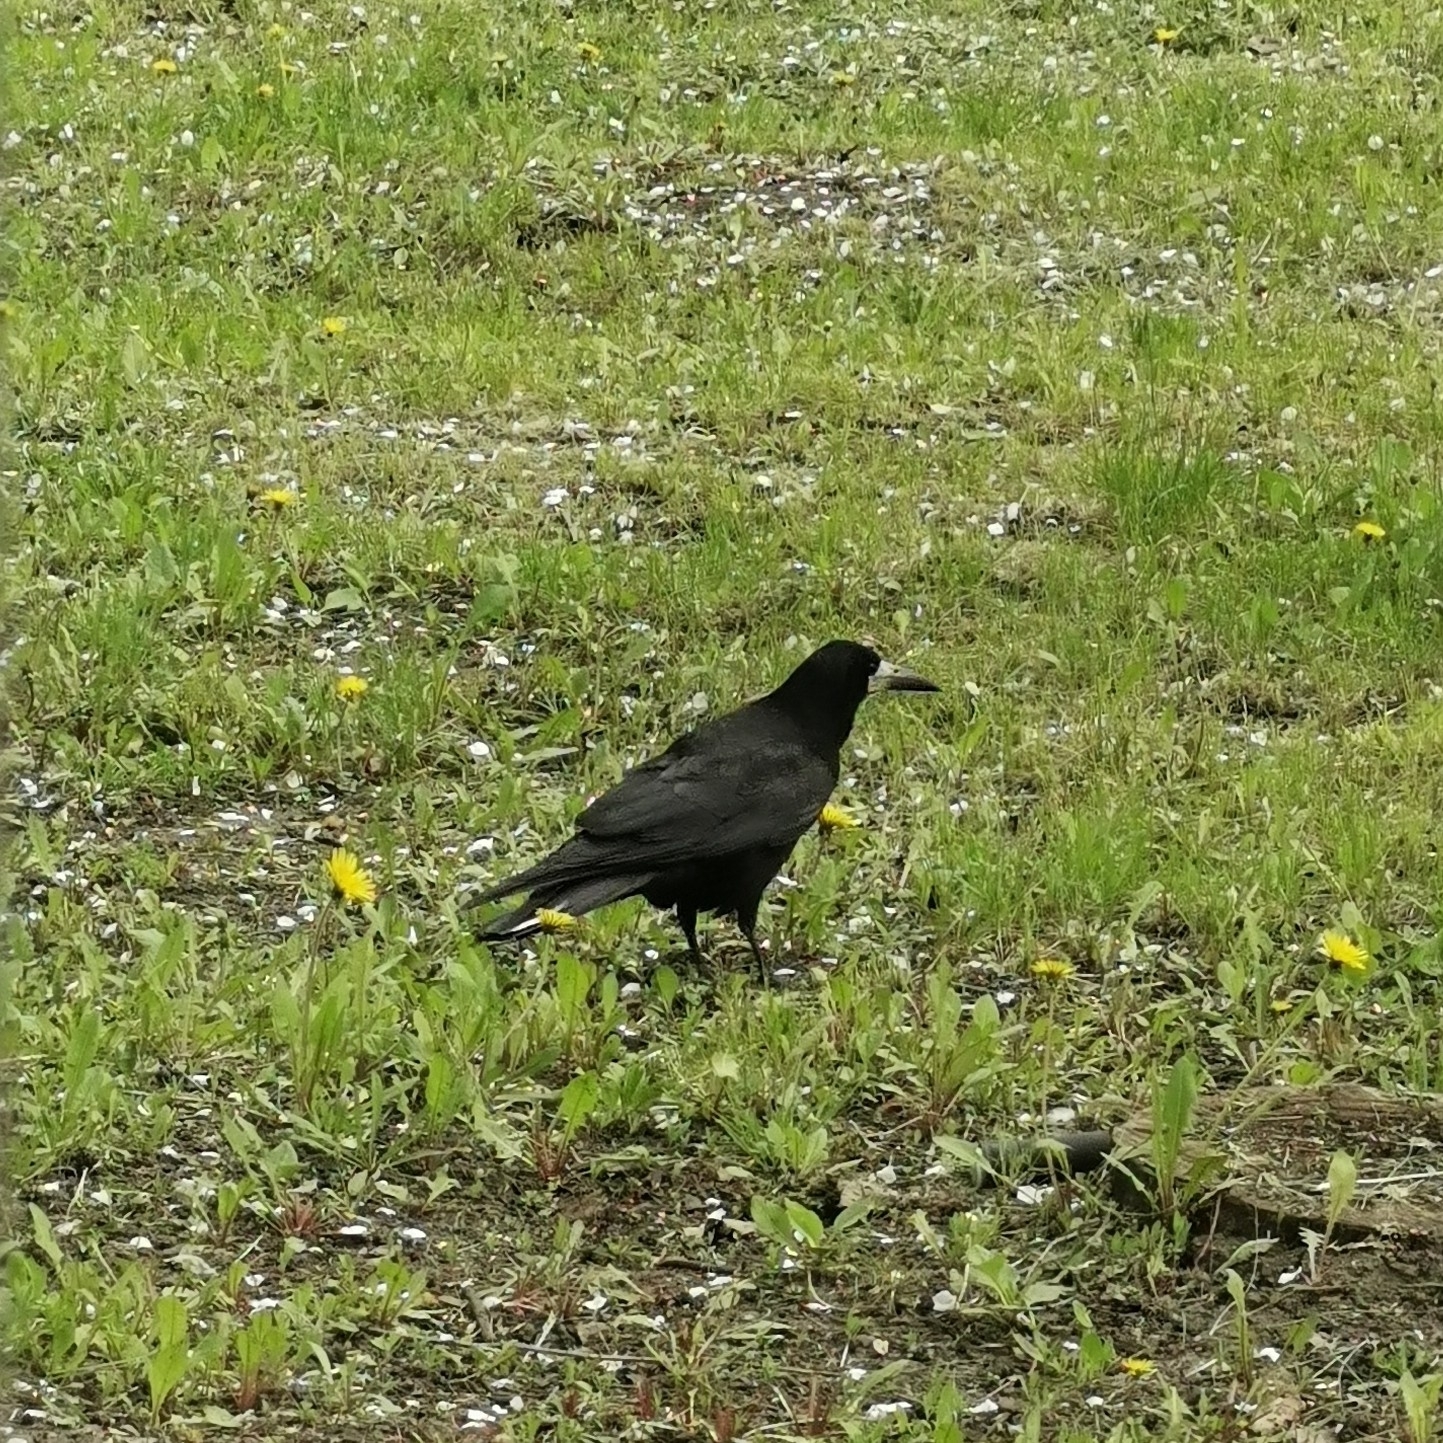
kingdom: Animalia
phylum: Chordata
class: Aves
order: Passeriformes
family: Corvidae
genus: Corvus
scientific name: Corvus frugilegus
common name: Rook
